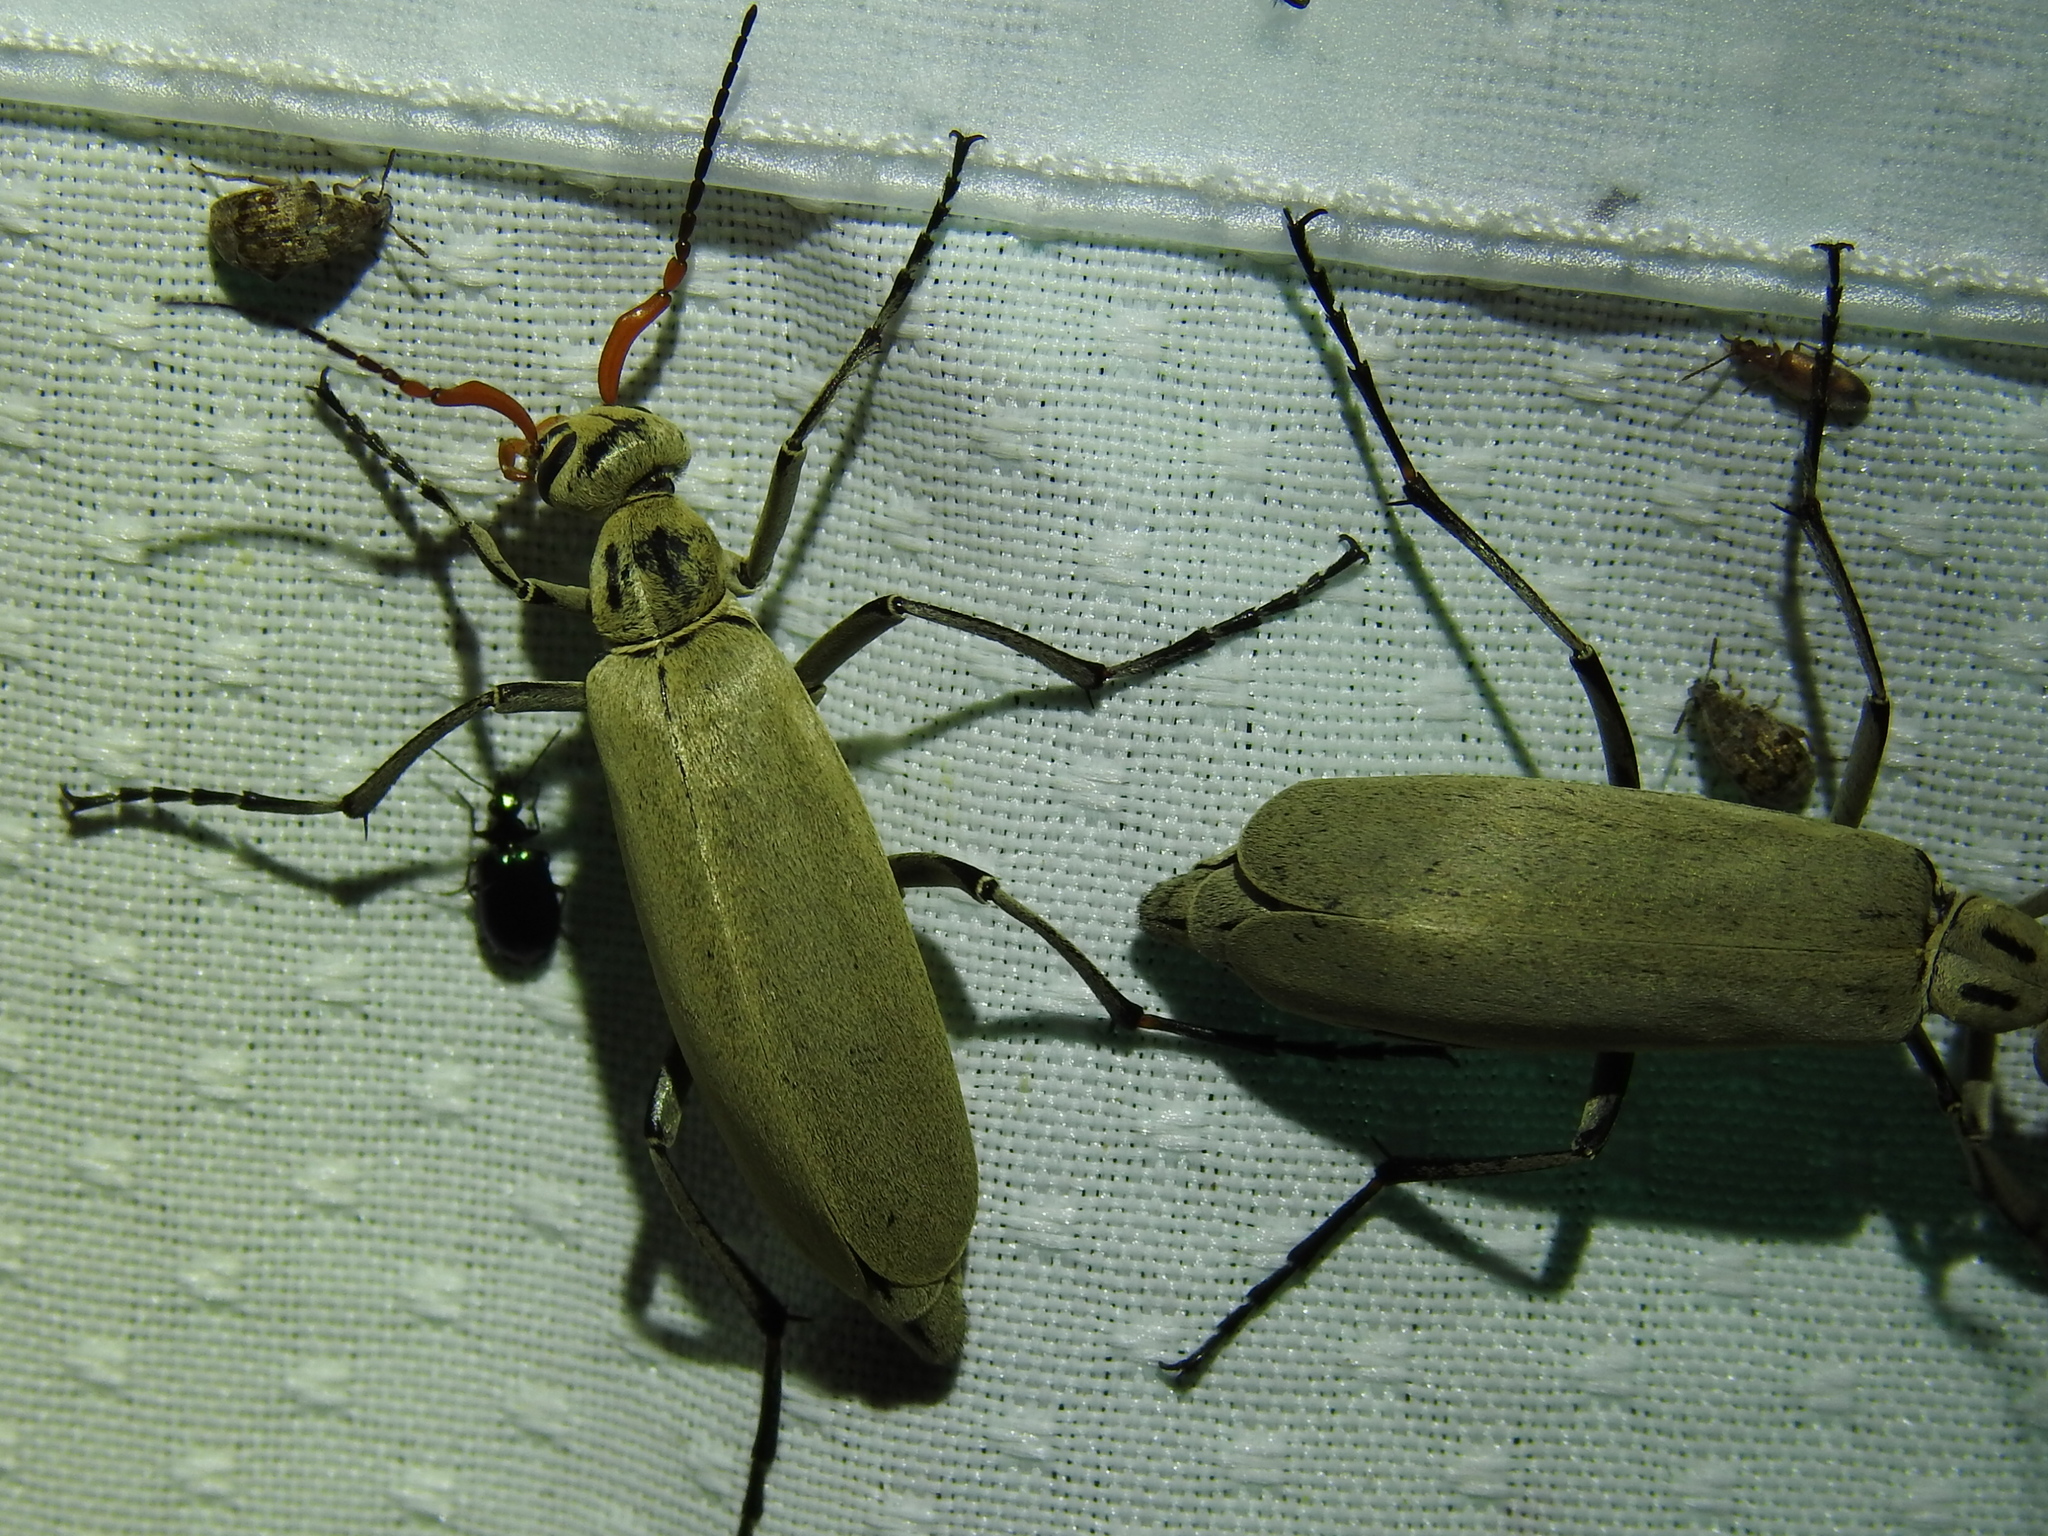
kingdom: Animalia
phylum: Arthropoda
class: Insecta
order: Coleoptera
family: Meloidae
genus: Epicauta
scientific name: Epicauta albida
